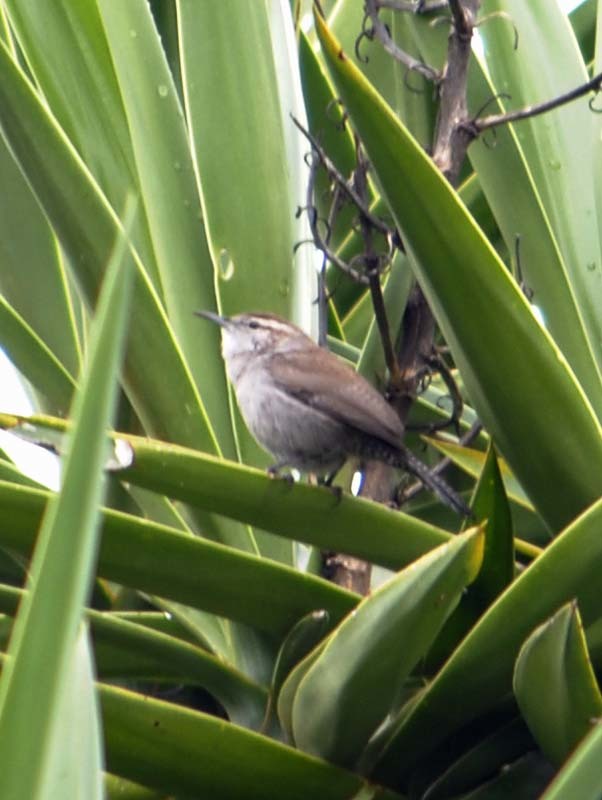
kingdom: Animalia
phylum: Chordata
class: Aves
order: Passeriformes
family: Troglodytidae
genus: Thryomanes
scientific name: Thryomanes bewickii
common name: Bewick's wren
